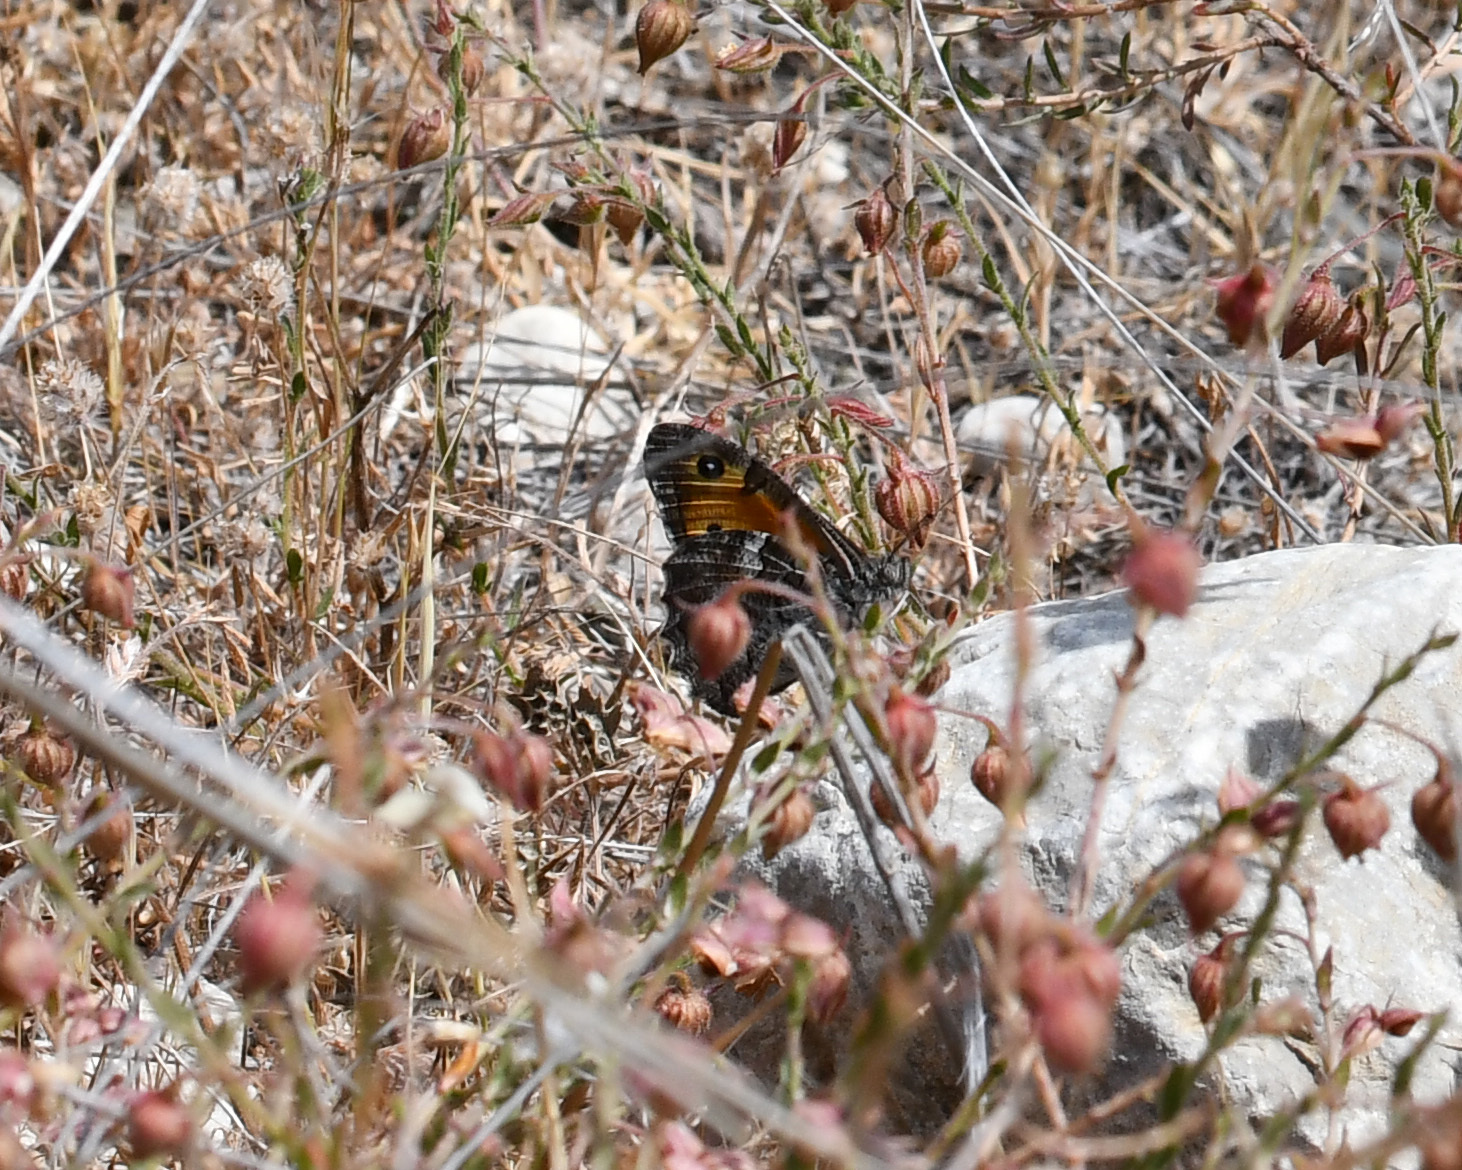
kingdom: Animalia
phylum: Arthropoda
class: Insecta
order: Lepidoptera
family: Nymphalidae
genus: Hipparchia
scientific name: Hipparchia cypriensis
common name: Cyprus grayling
